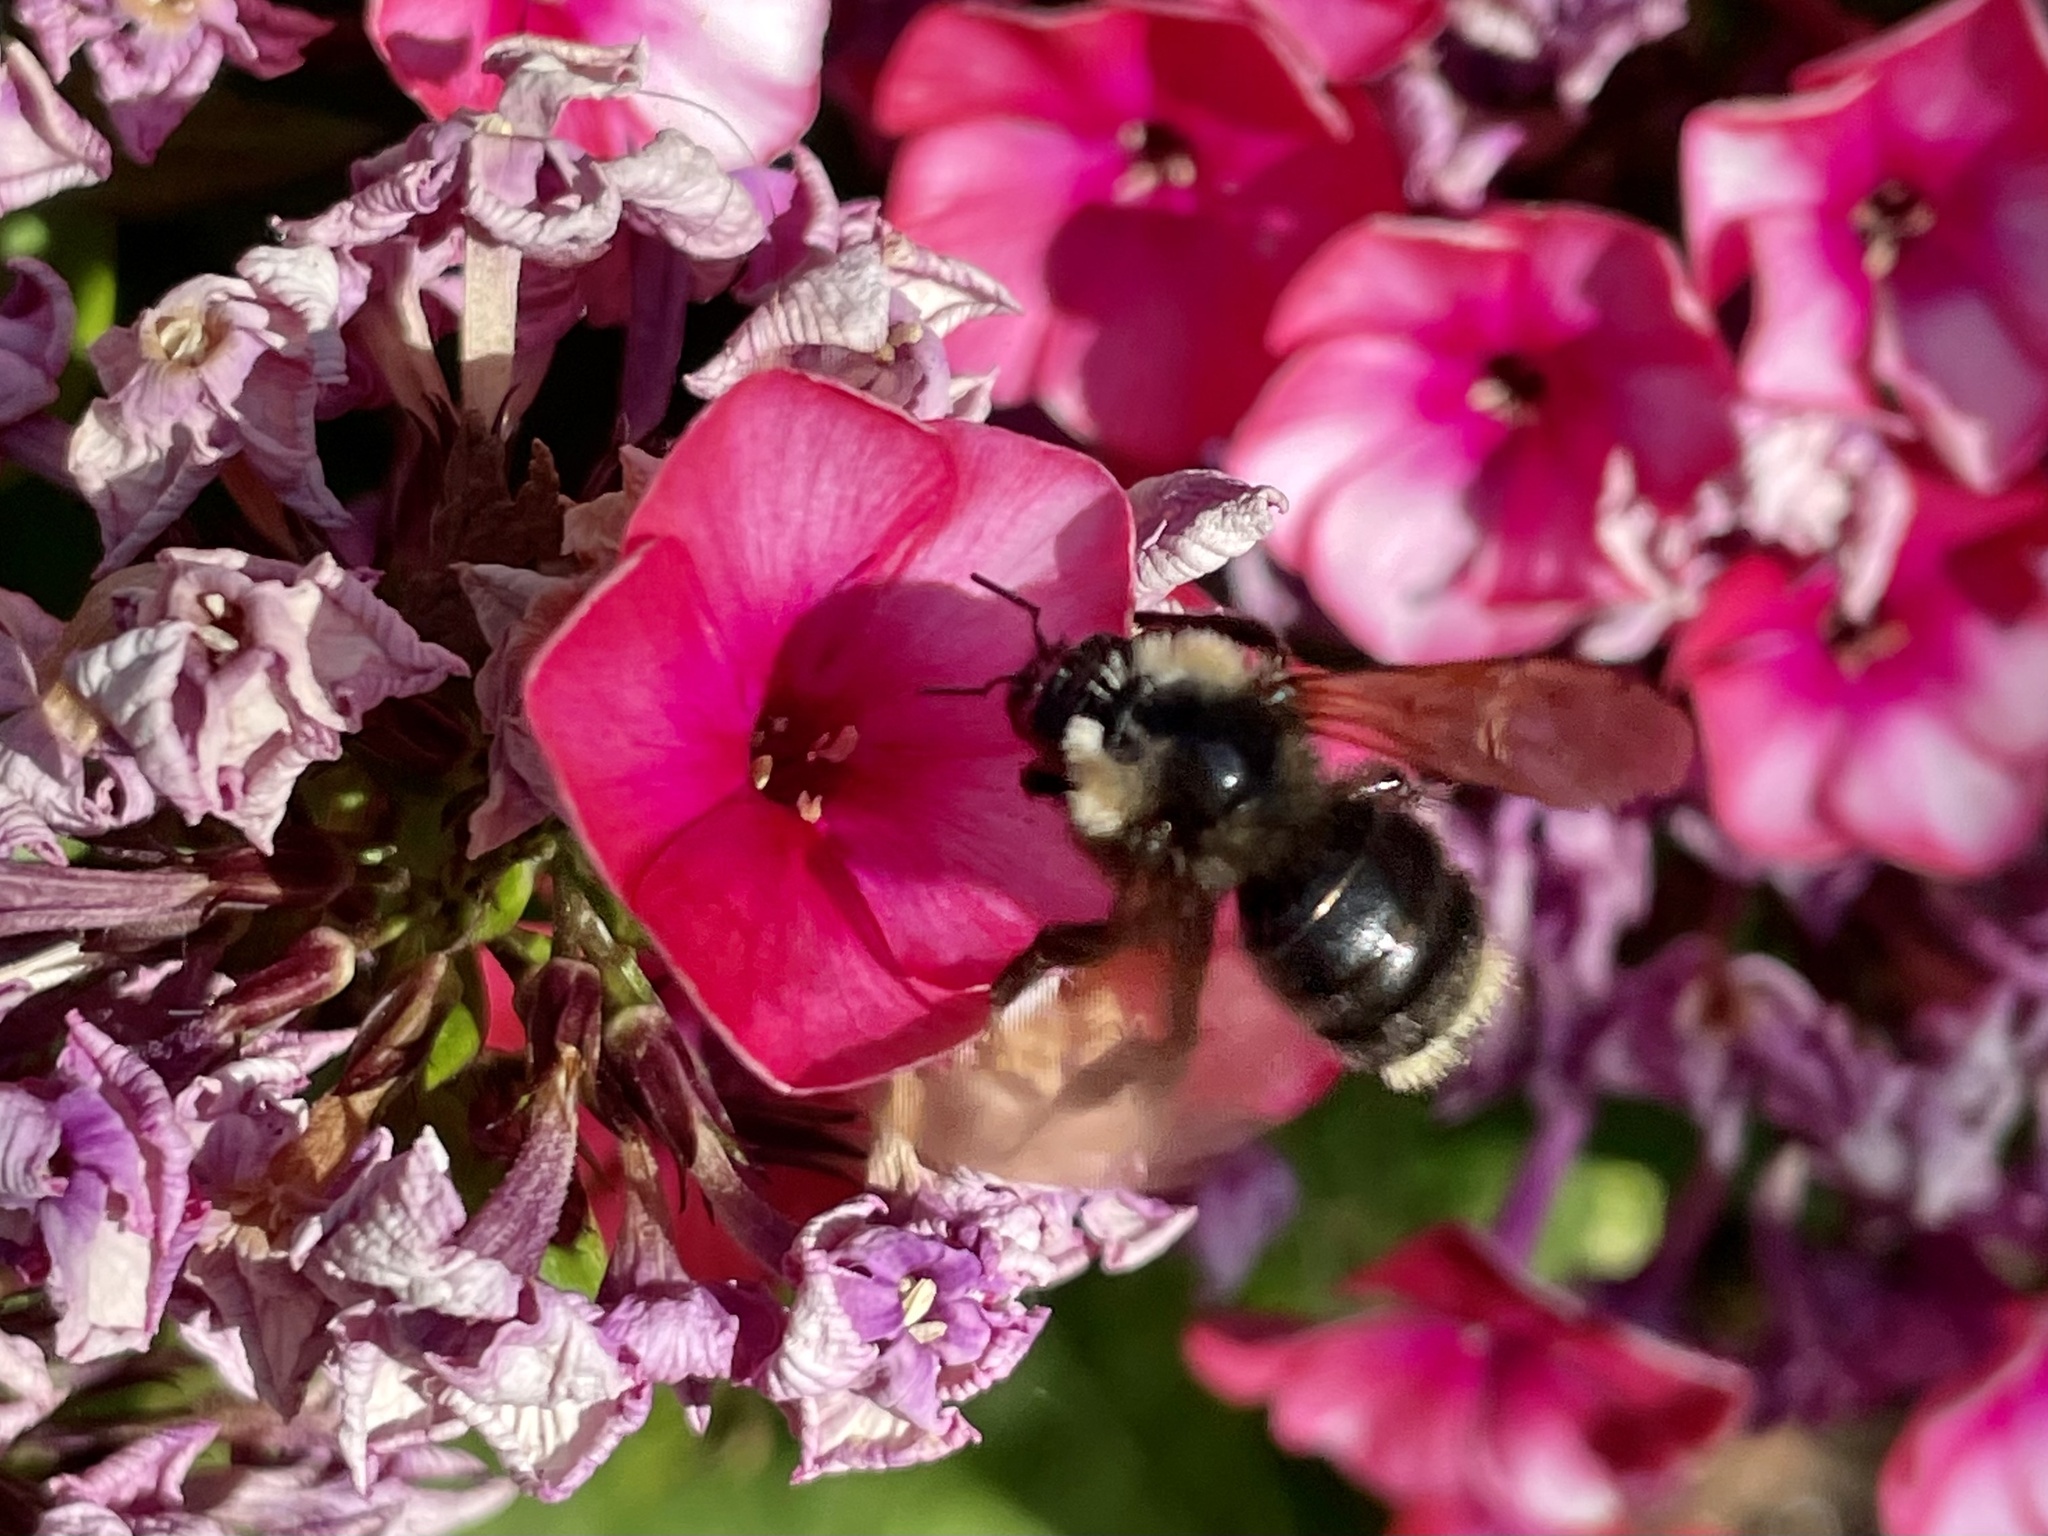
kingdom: Animalia
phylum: Arthropoda
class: Insecta
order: Hymenoptera
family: Apidae
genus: Bombus
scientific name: Bombus californicus
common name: California bumble bee
